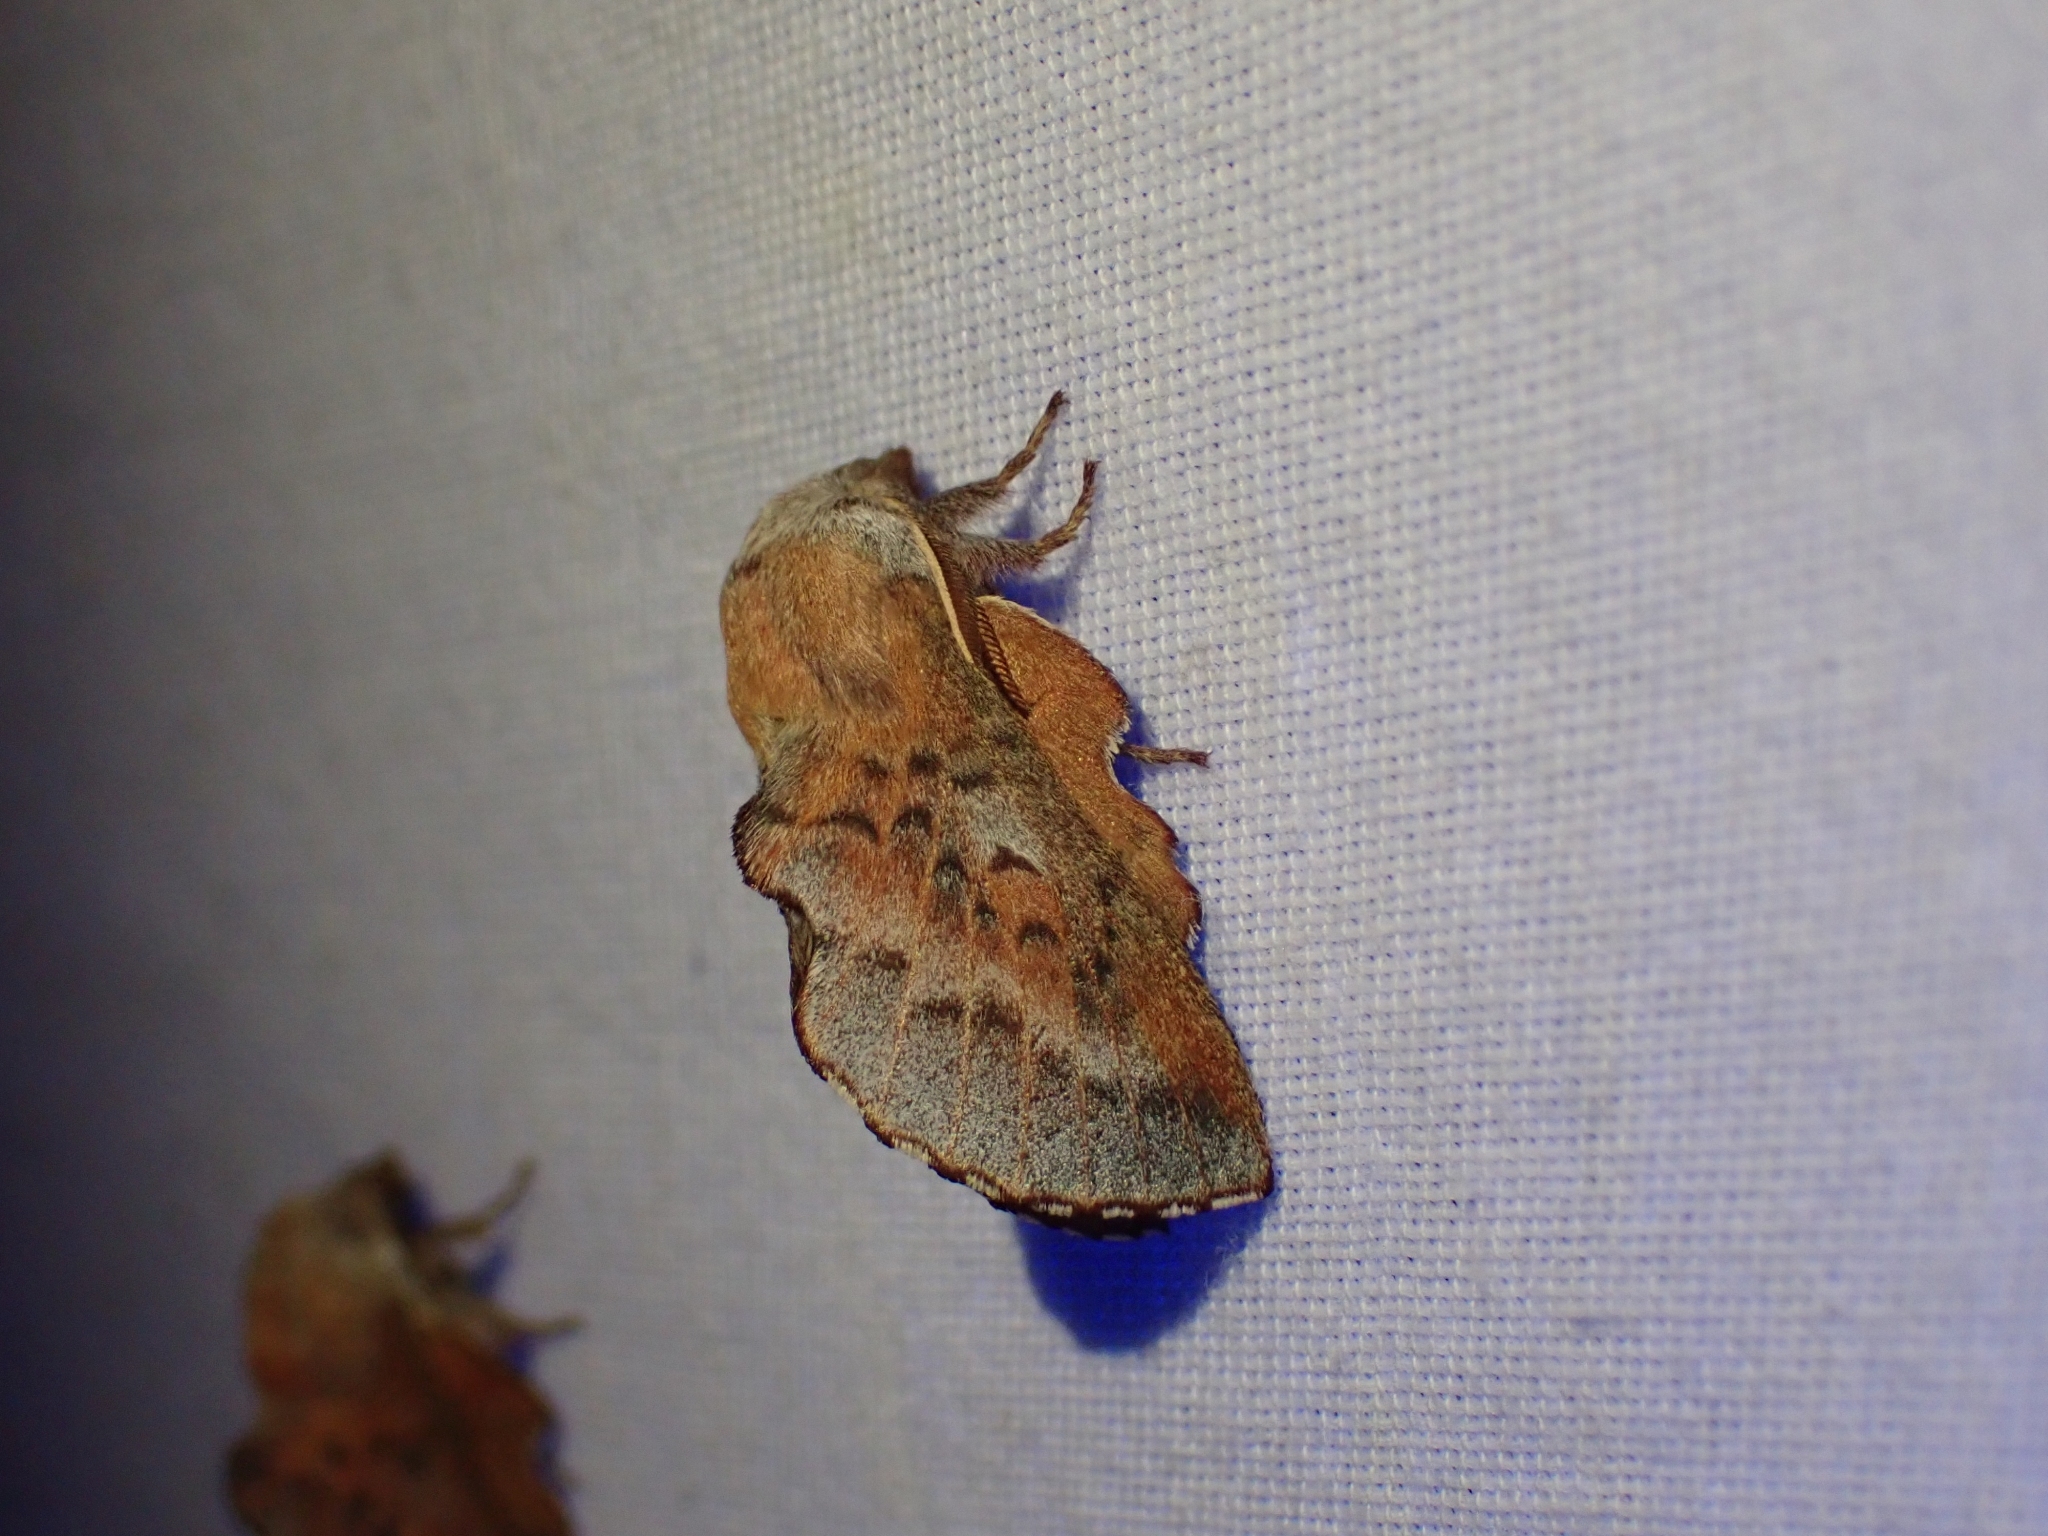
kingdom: Animalia
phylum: Arthropoda
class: Insecta
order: Lepidoptera
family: Lasiocampidae
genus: Phyllodesma
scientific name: Phyllodesma americana
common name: American lappet moth
